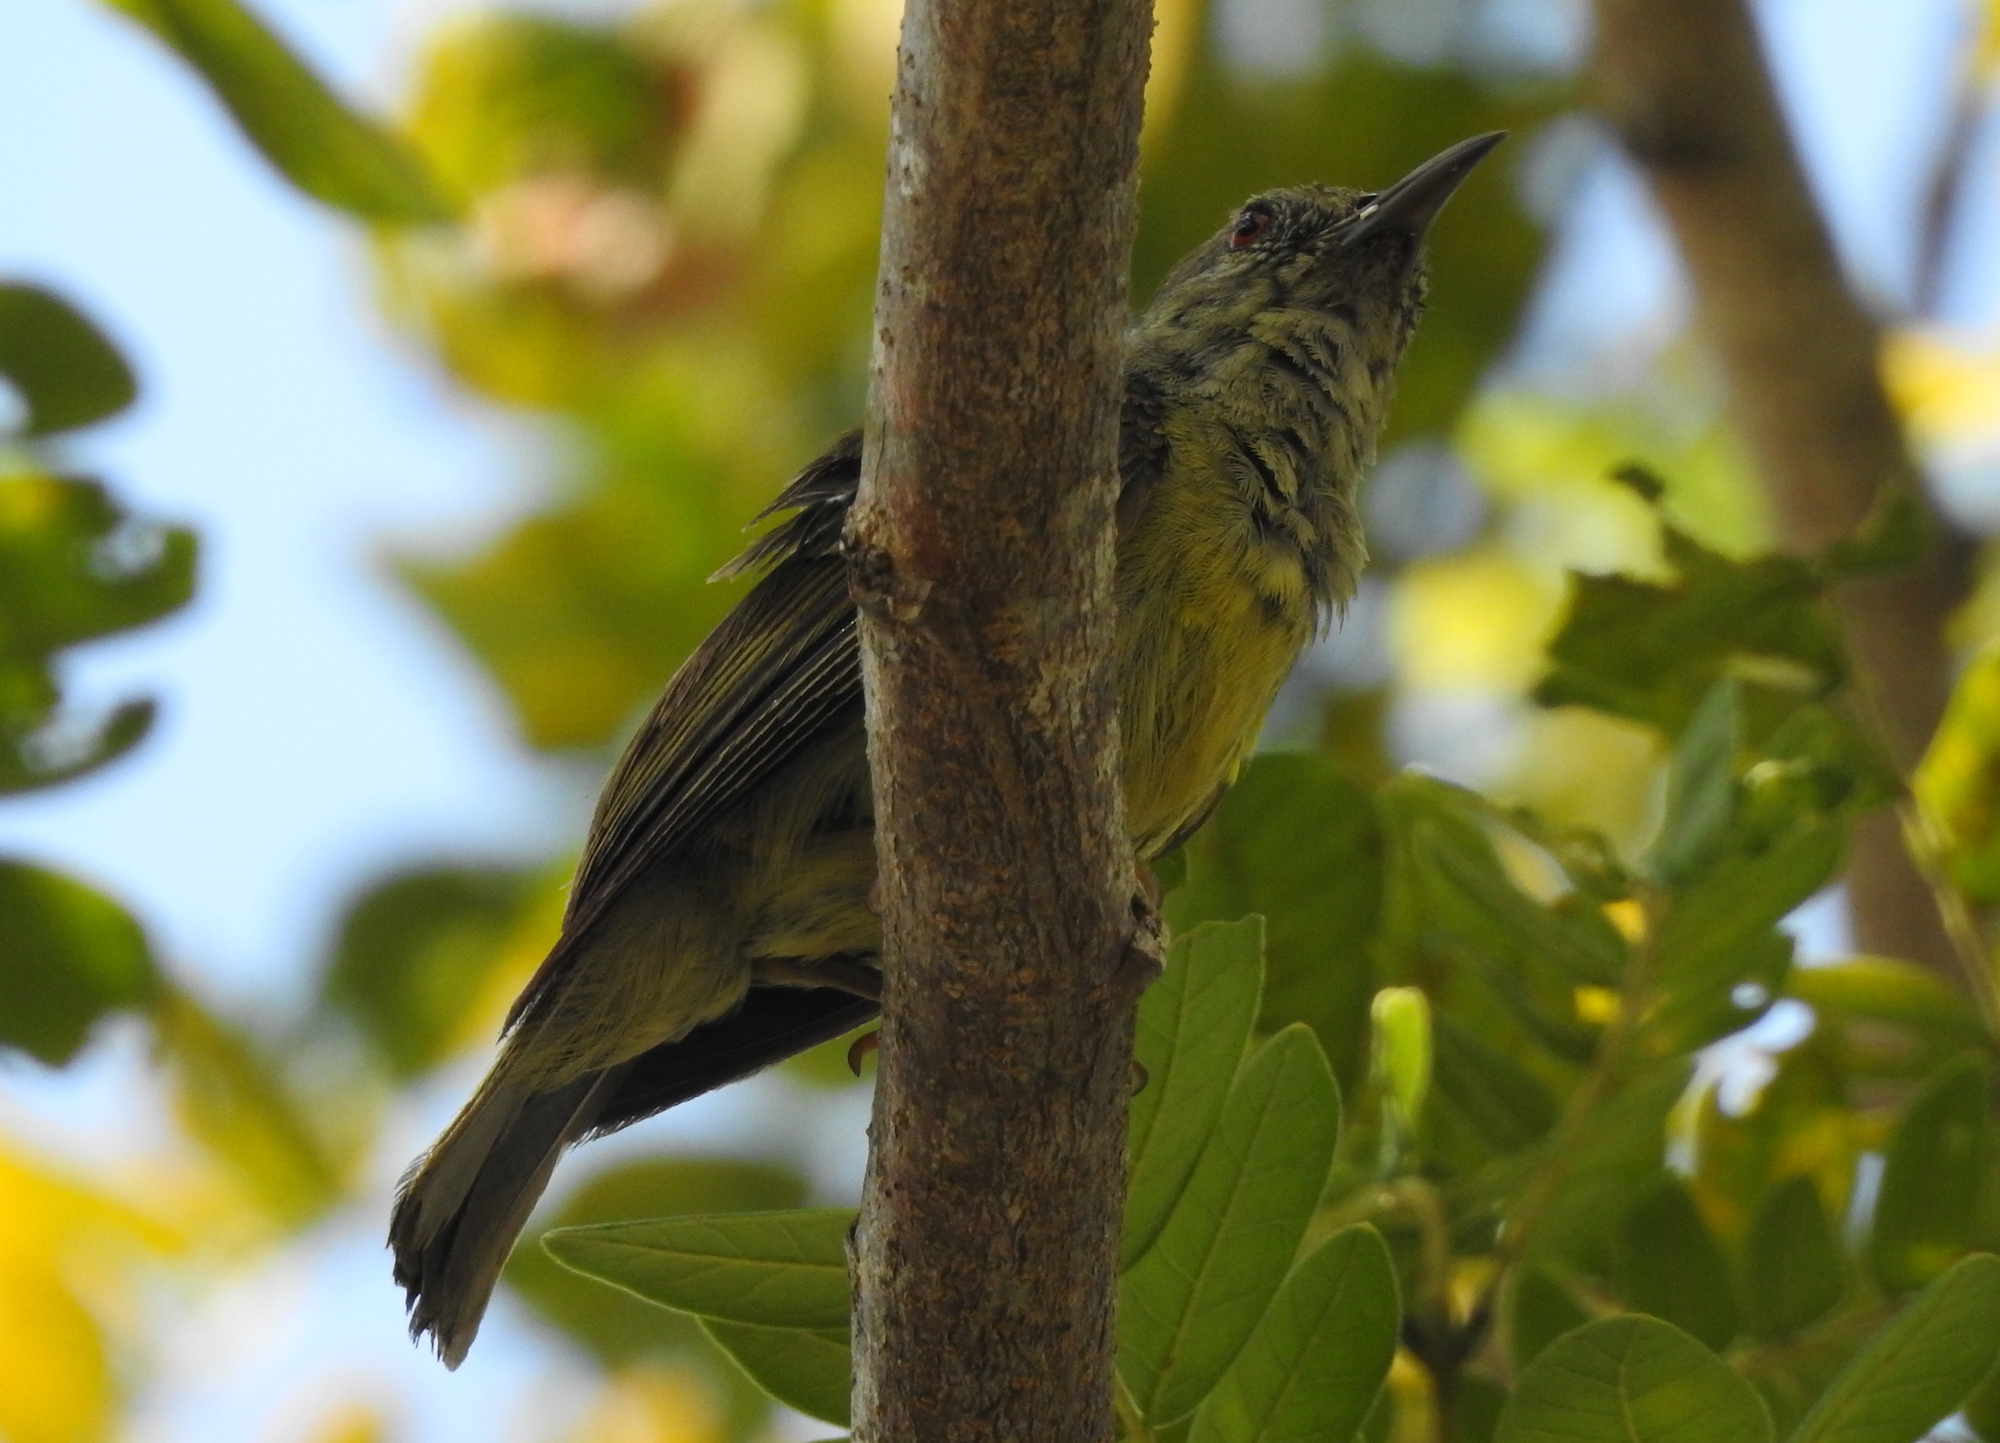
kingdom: Animalia
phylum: Chordata
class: Aves
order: Passeriformes
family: Nectariniidae
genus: Anthreptes
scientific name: Anthreptes malacensis
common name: Brown-throated sunbird
